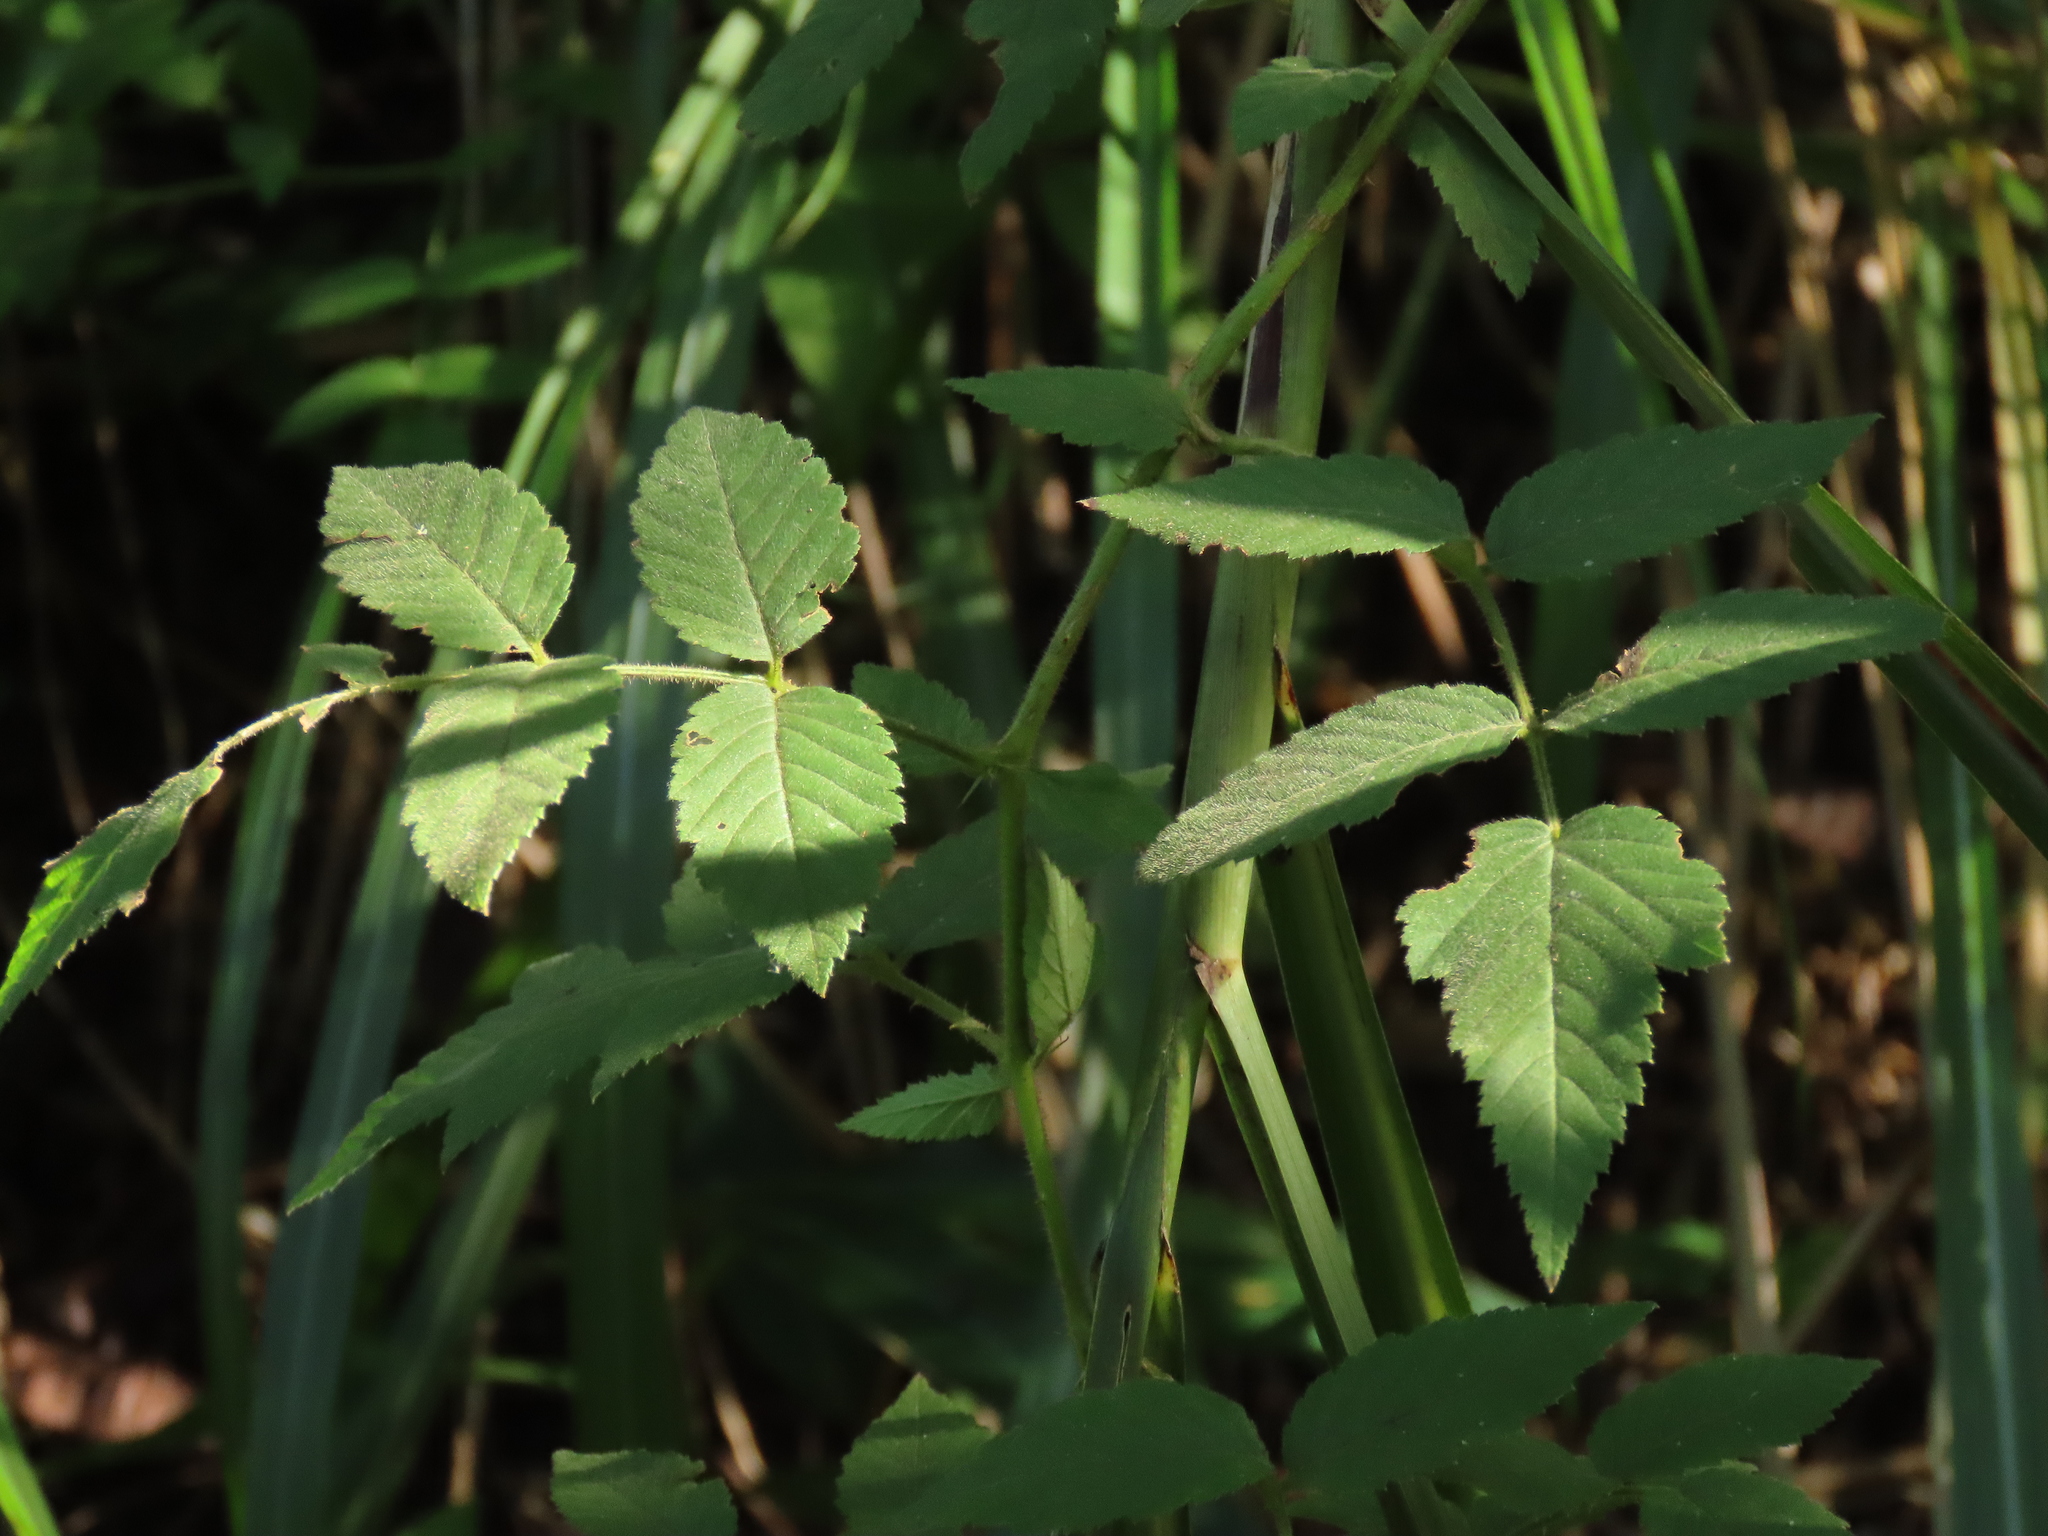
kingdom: Plantae
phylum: Tracheophyta
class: Magnoliopsida
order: Rosales
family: Rosaceae
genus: Rubus
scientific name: Rubus croceacanthus
